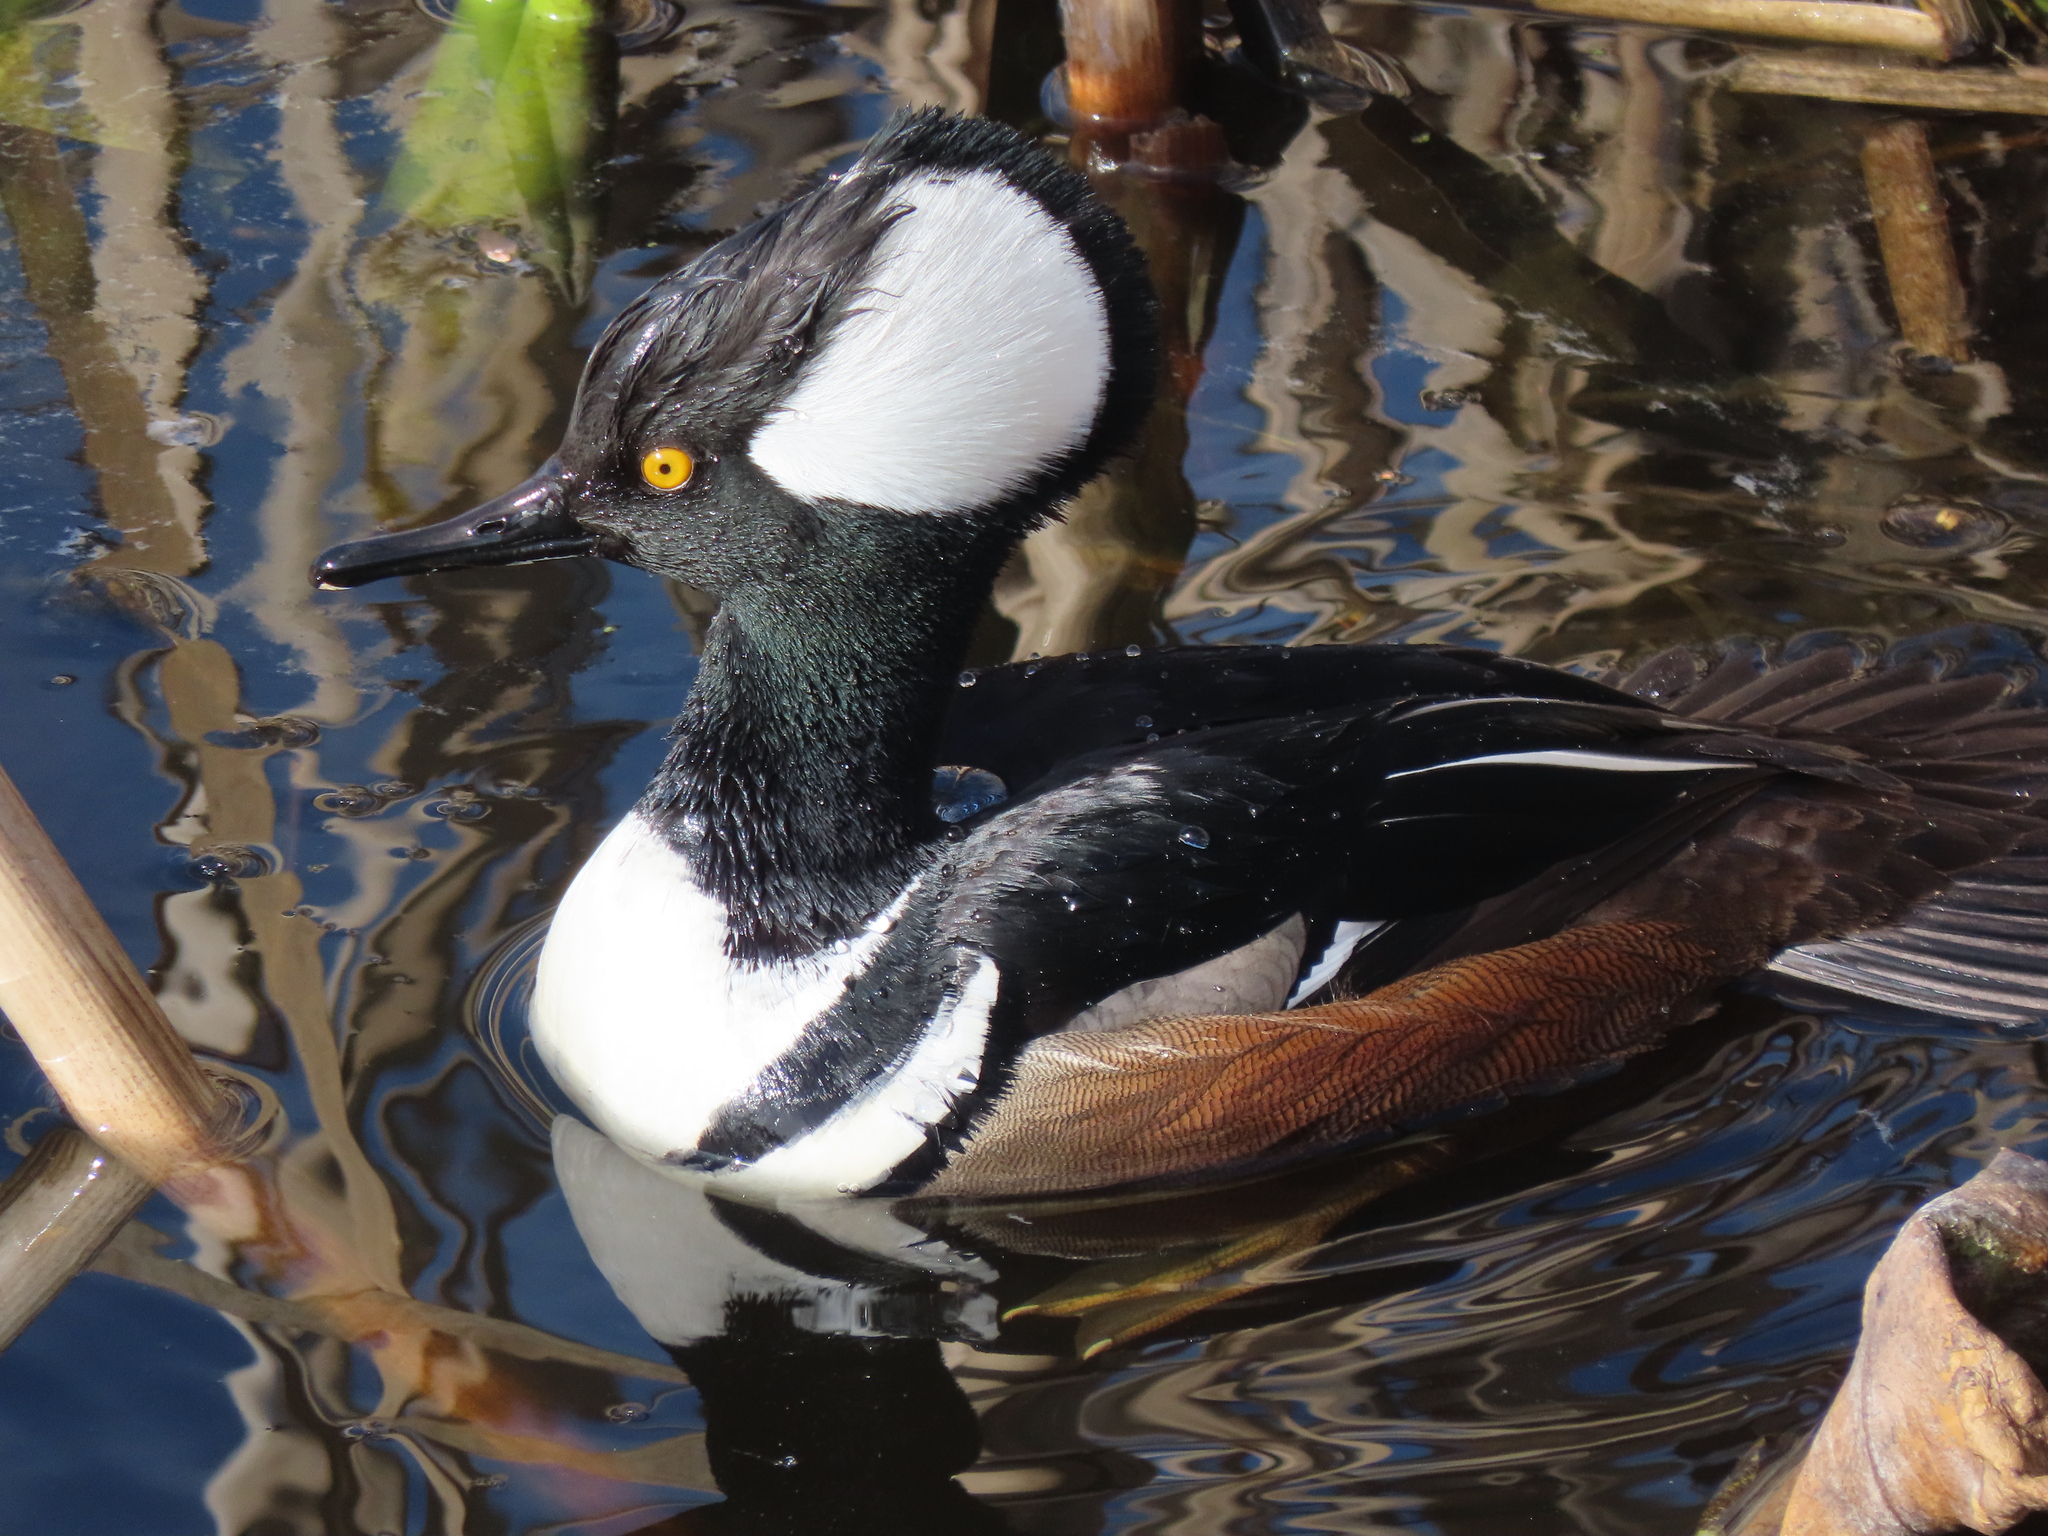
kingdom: Animalia
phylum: Chordata
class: Aves
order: Anseriformes
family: Anatidae
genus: Lophodytes
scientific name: Lophodytes cucullatus
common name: Hooded merganser
